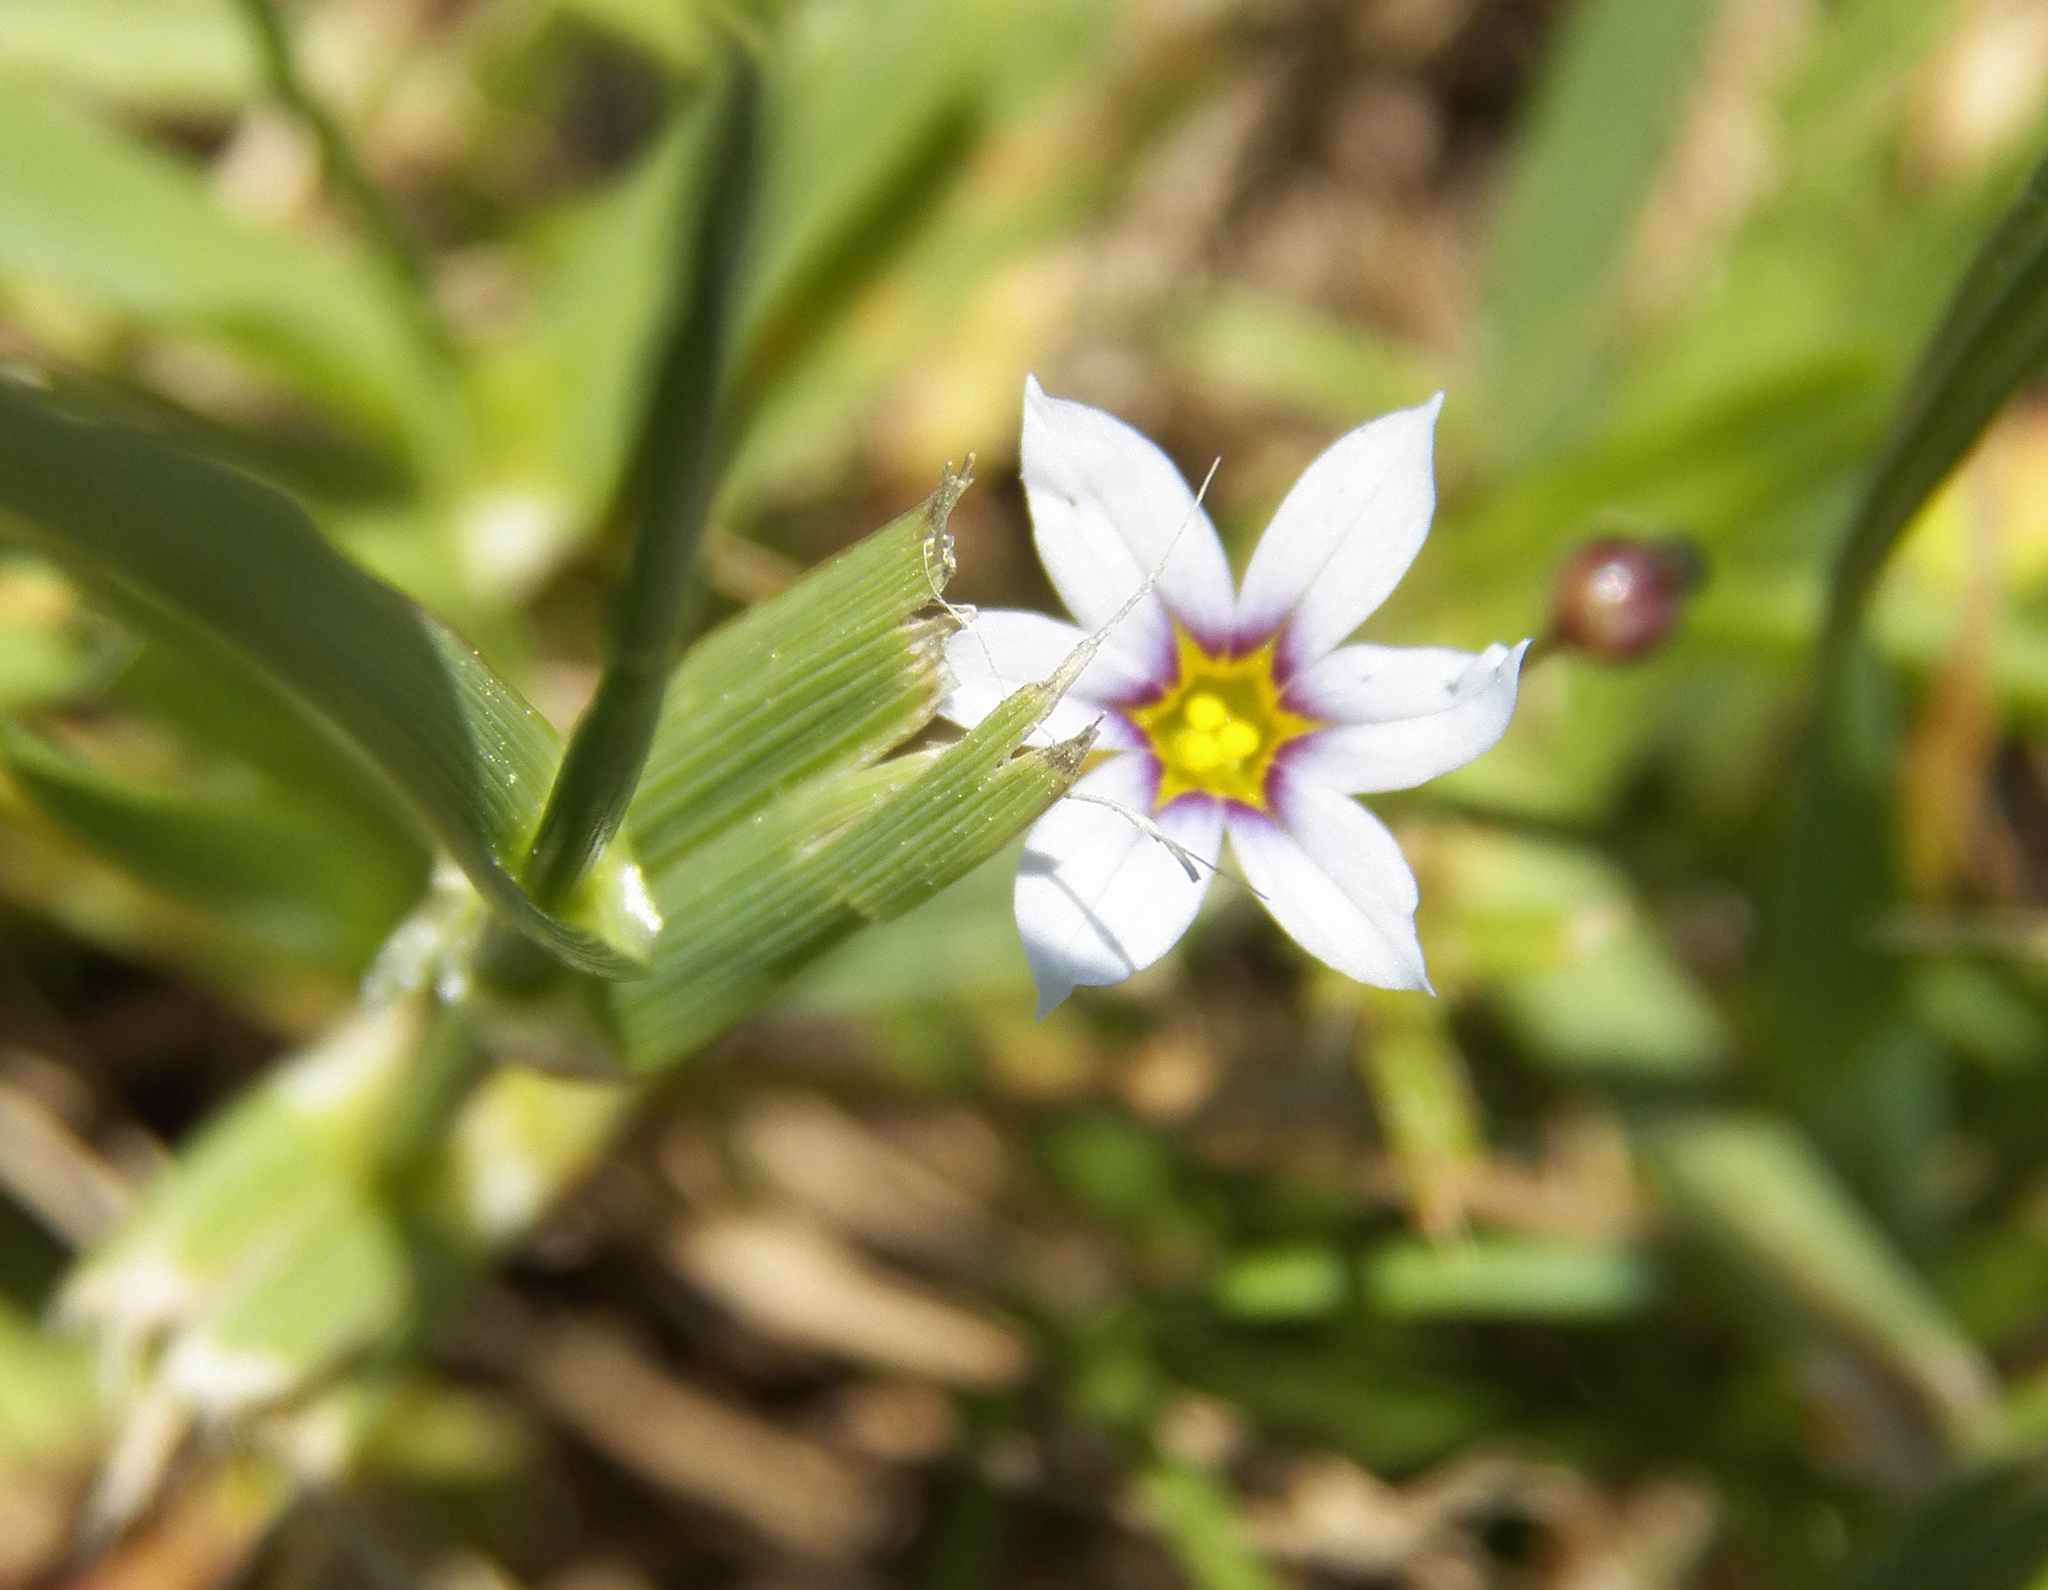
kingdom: Plantae
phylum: Tracheophyta
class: Liliopsida
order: Asparagales
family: Iridaceae
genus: Sisyrinchium
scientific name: Sisyrinchium micranthum
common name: Bermuda pigroot
